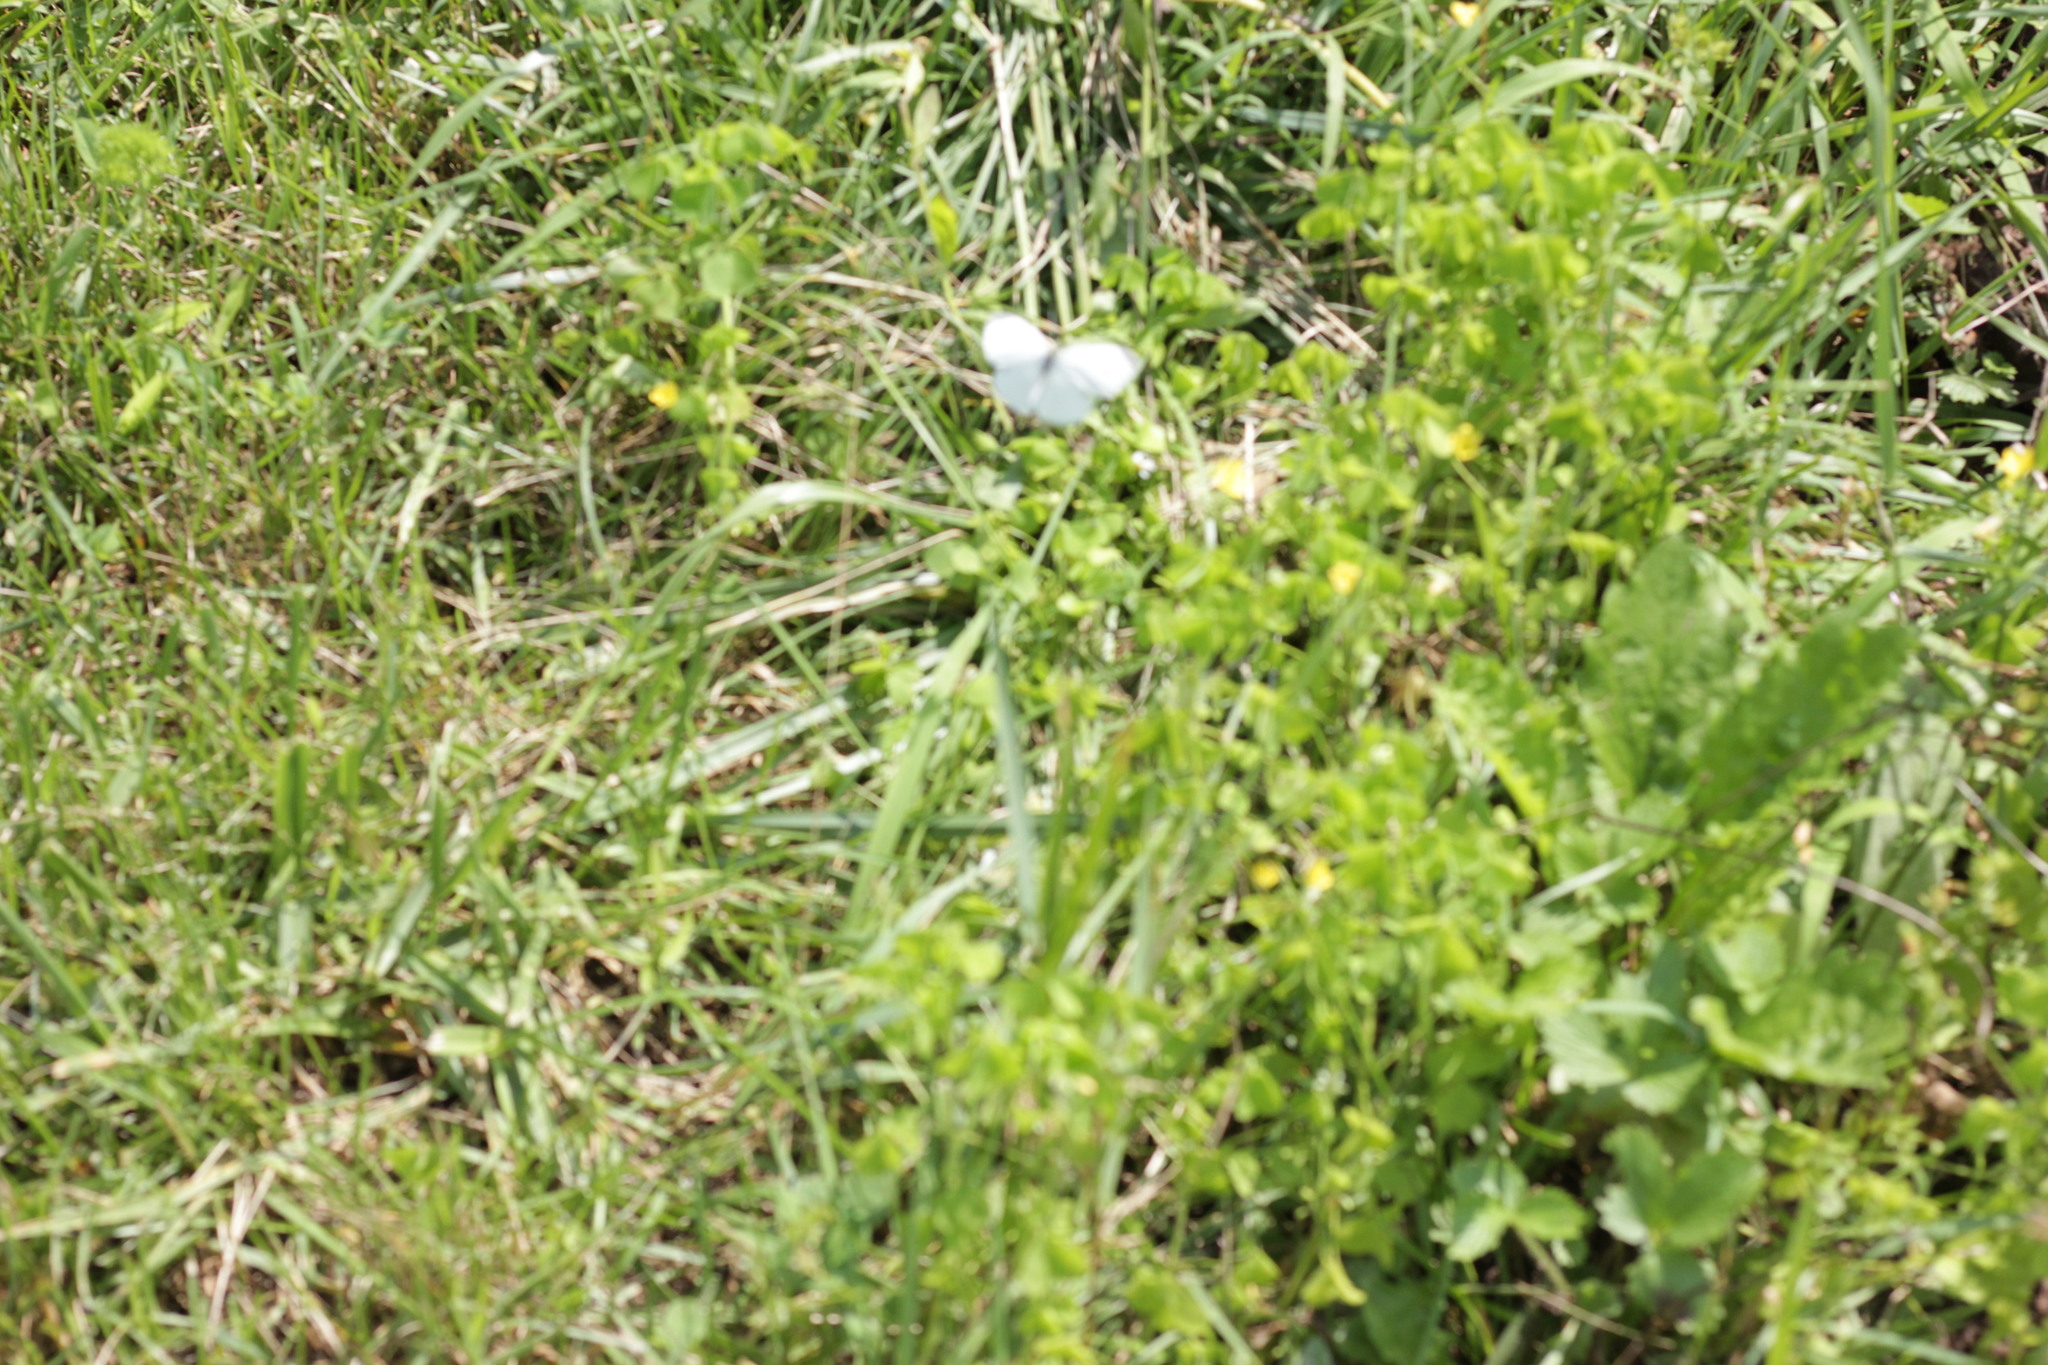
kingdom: Animalia
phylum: Arthropoda
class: Insecta
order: Lepidoptera
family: Pieridae
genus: Pieris
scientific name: Pieris rapae
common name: Small white
